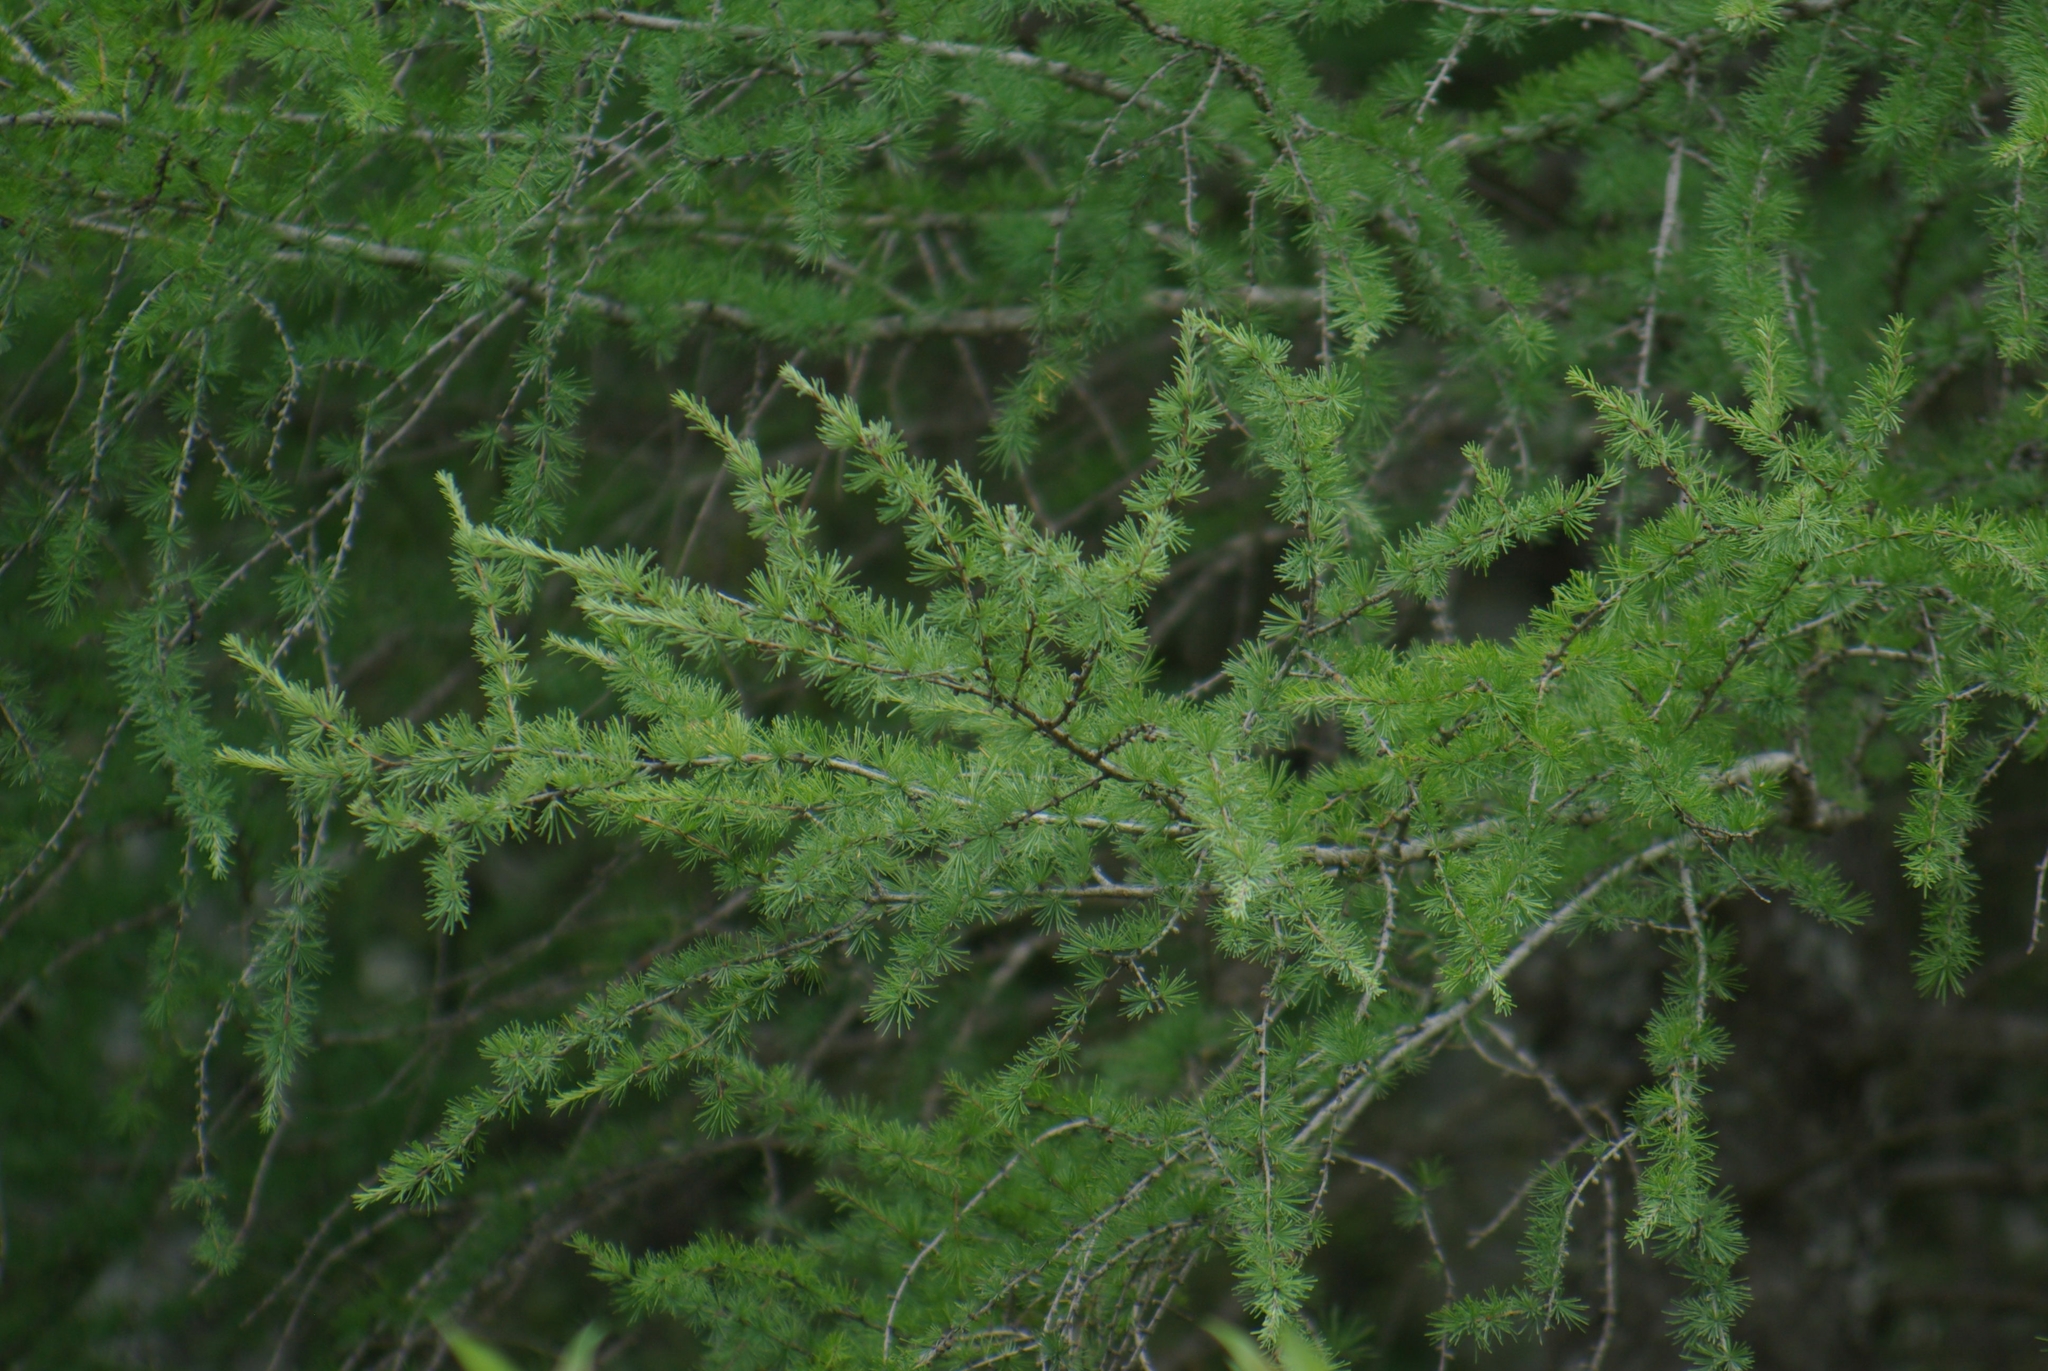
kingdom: Plantae
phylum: Tracheophyta
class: Pinopsida
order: Pinales
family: Pinaceae
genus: Larix
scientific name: Larix laricina
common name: American larch
